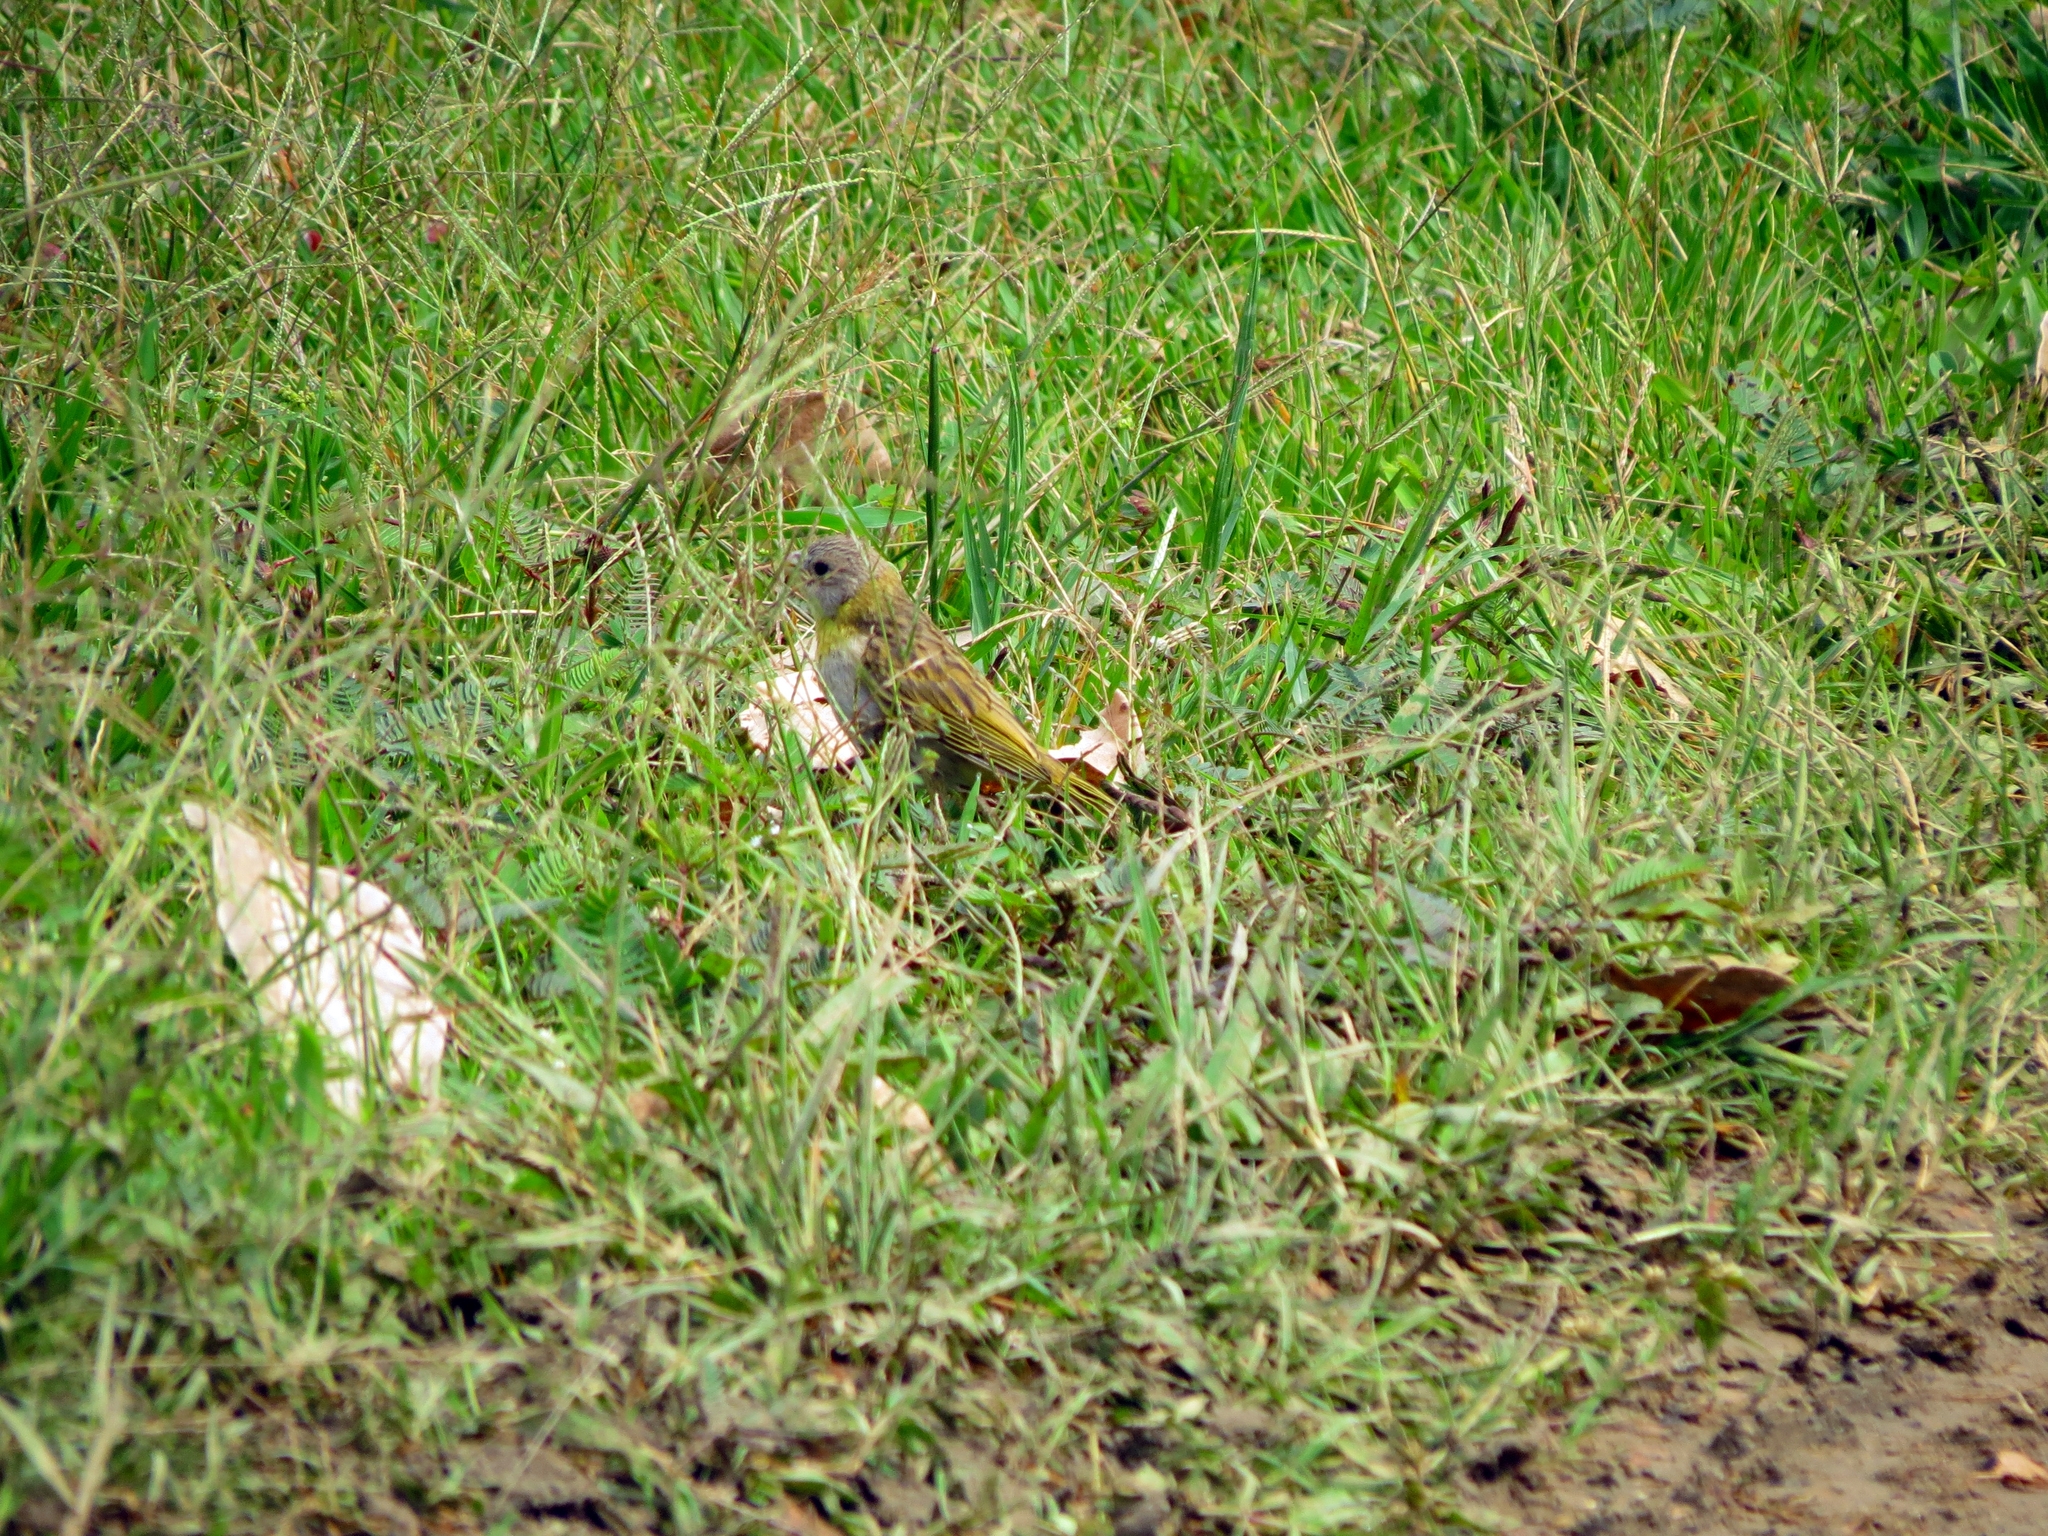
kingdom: Animalia
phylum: Chordata
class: Aves
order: Passeriformes
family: Thraupidae
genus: Sicalis
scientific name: Sicalis flaveola
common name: Saffron finch
